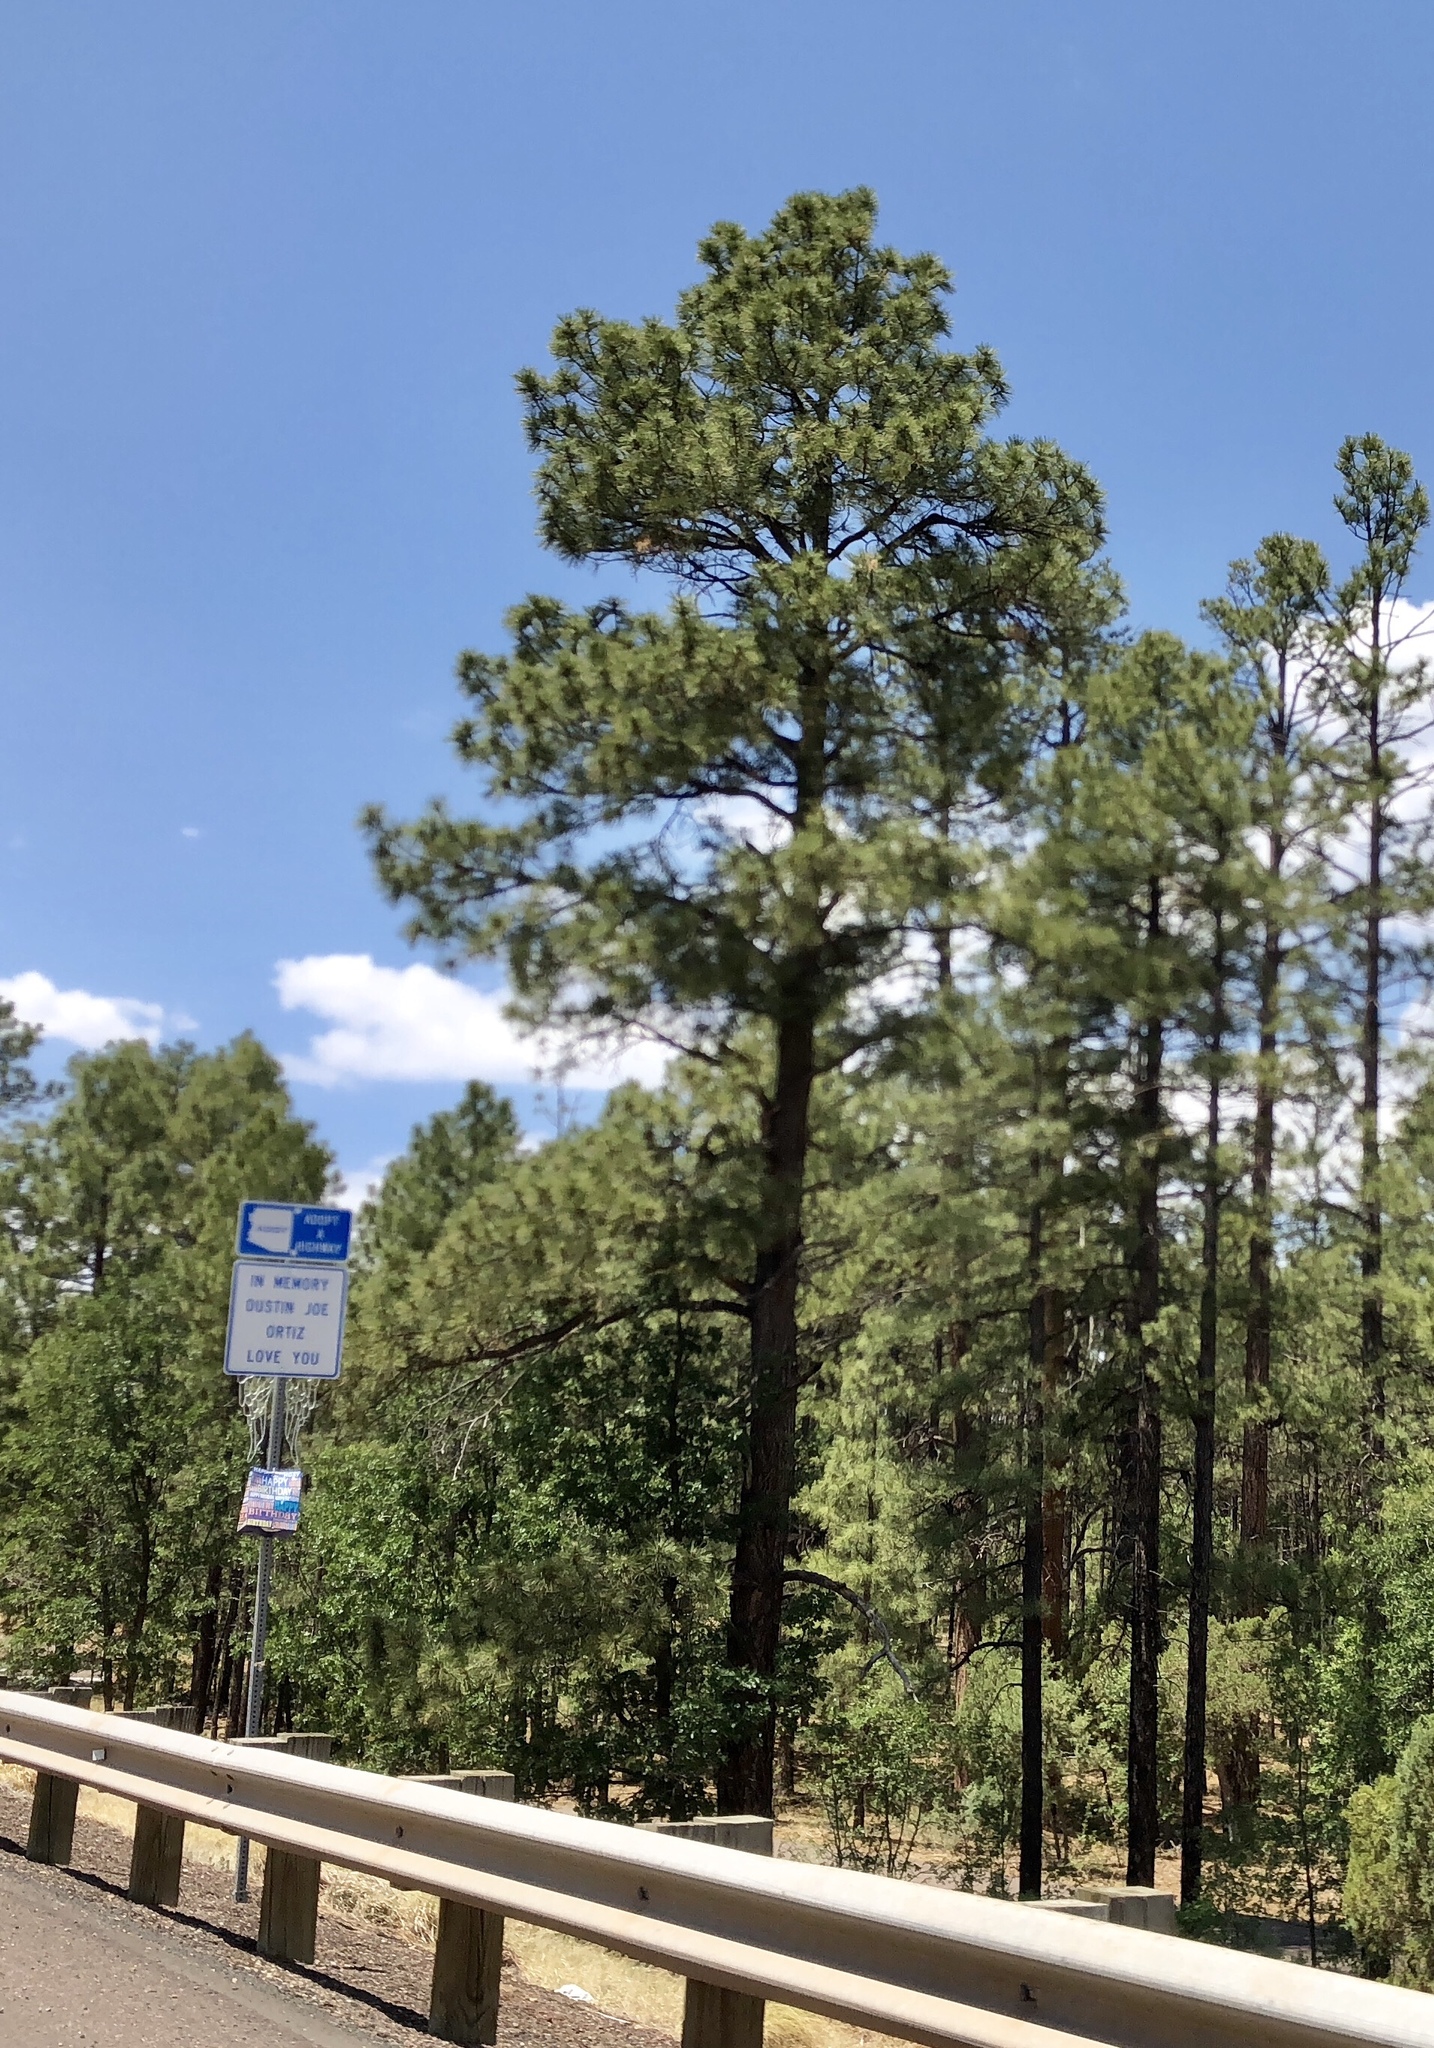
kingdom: Plantae
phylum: Tracheophyta
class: Pinopsida
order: Pinales
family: Pinaceae
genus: Pinus
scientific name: Pinus ponderosa
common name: Western yellow-pine
